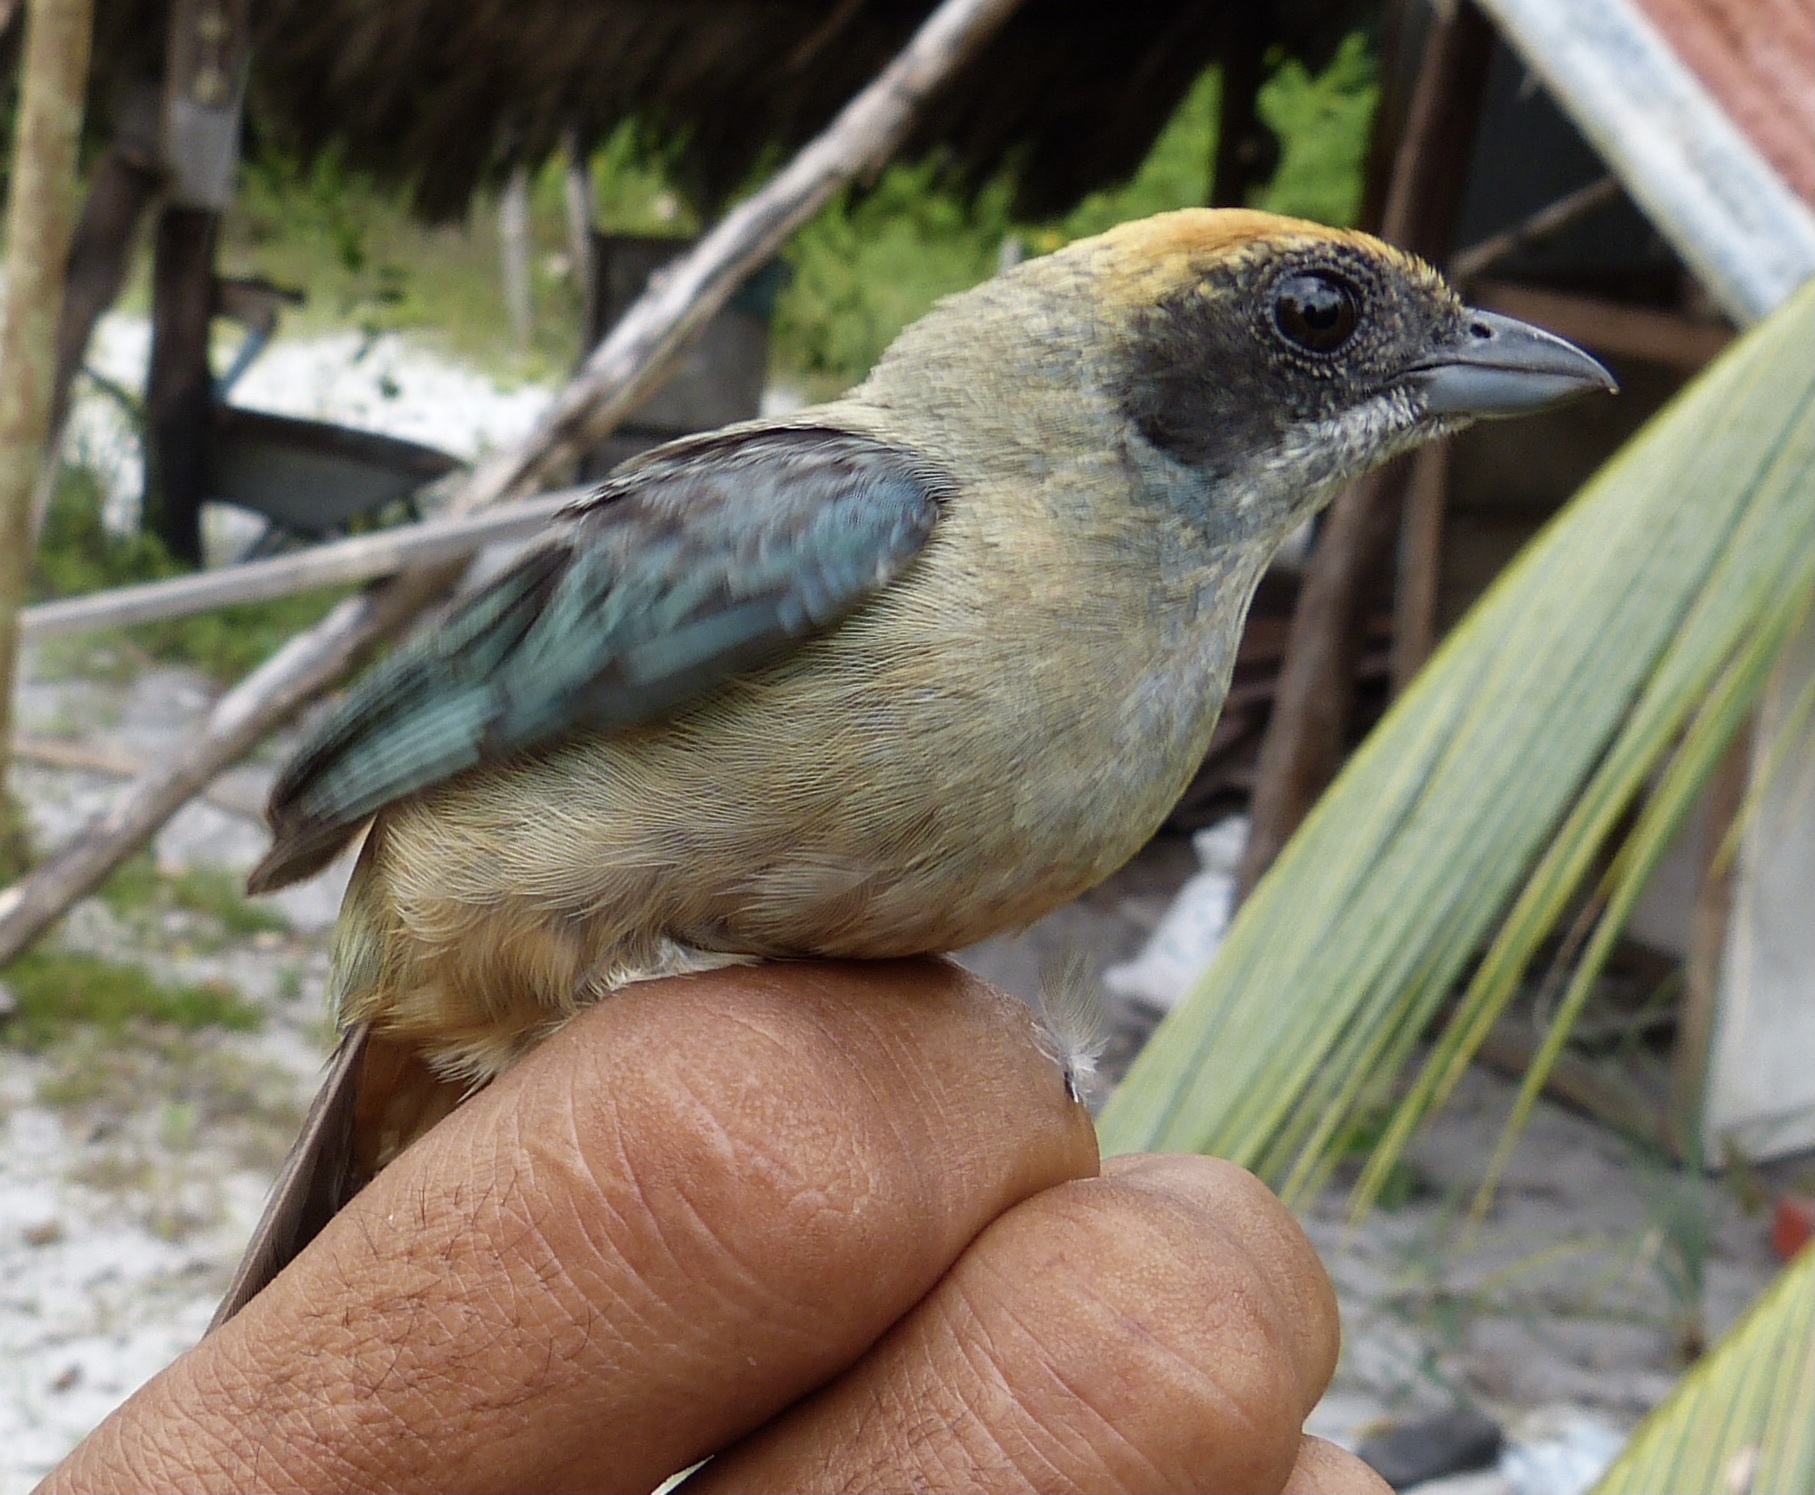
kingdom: Animalia
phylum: Chordata
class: Aves
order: Passeriformes
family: Thraupidae
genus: Stilpnia
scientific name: Stilpnia cayana
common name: Burnished-buff tanager
